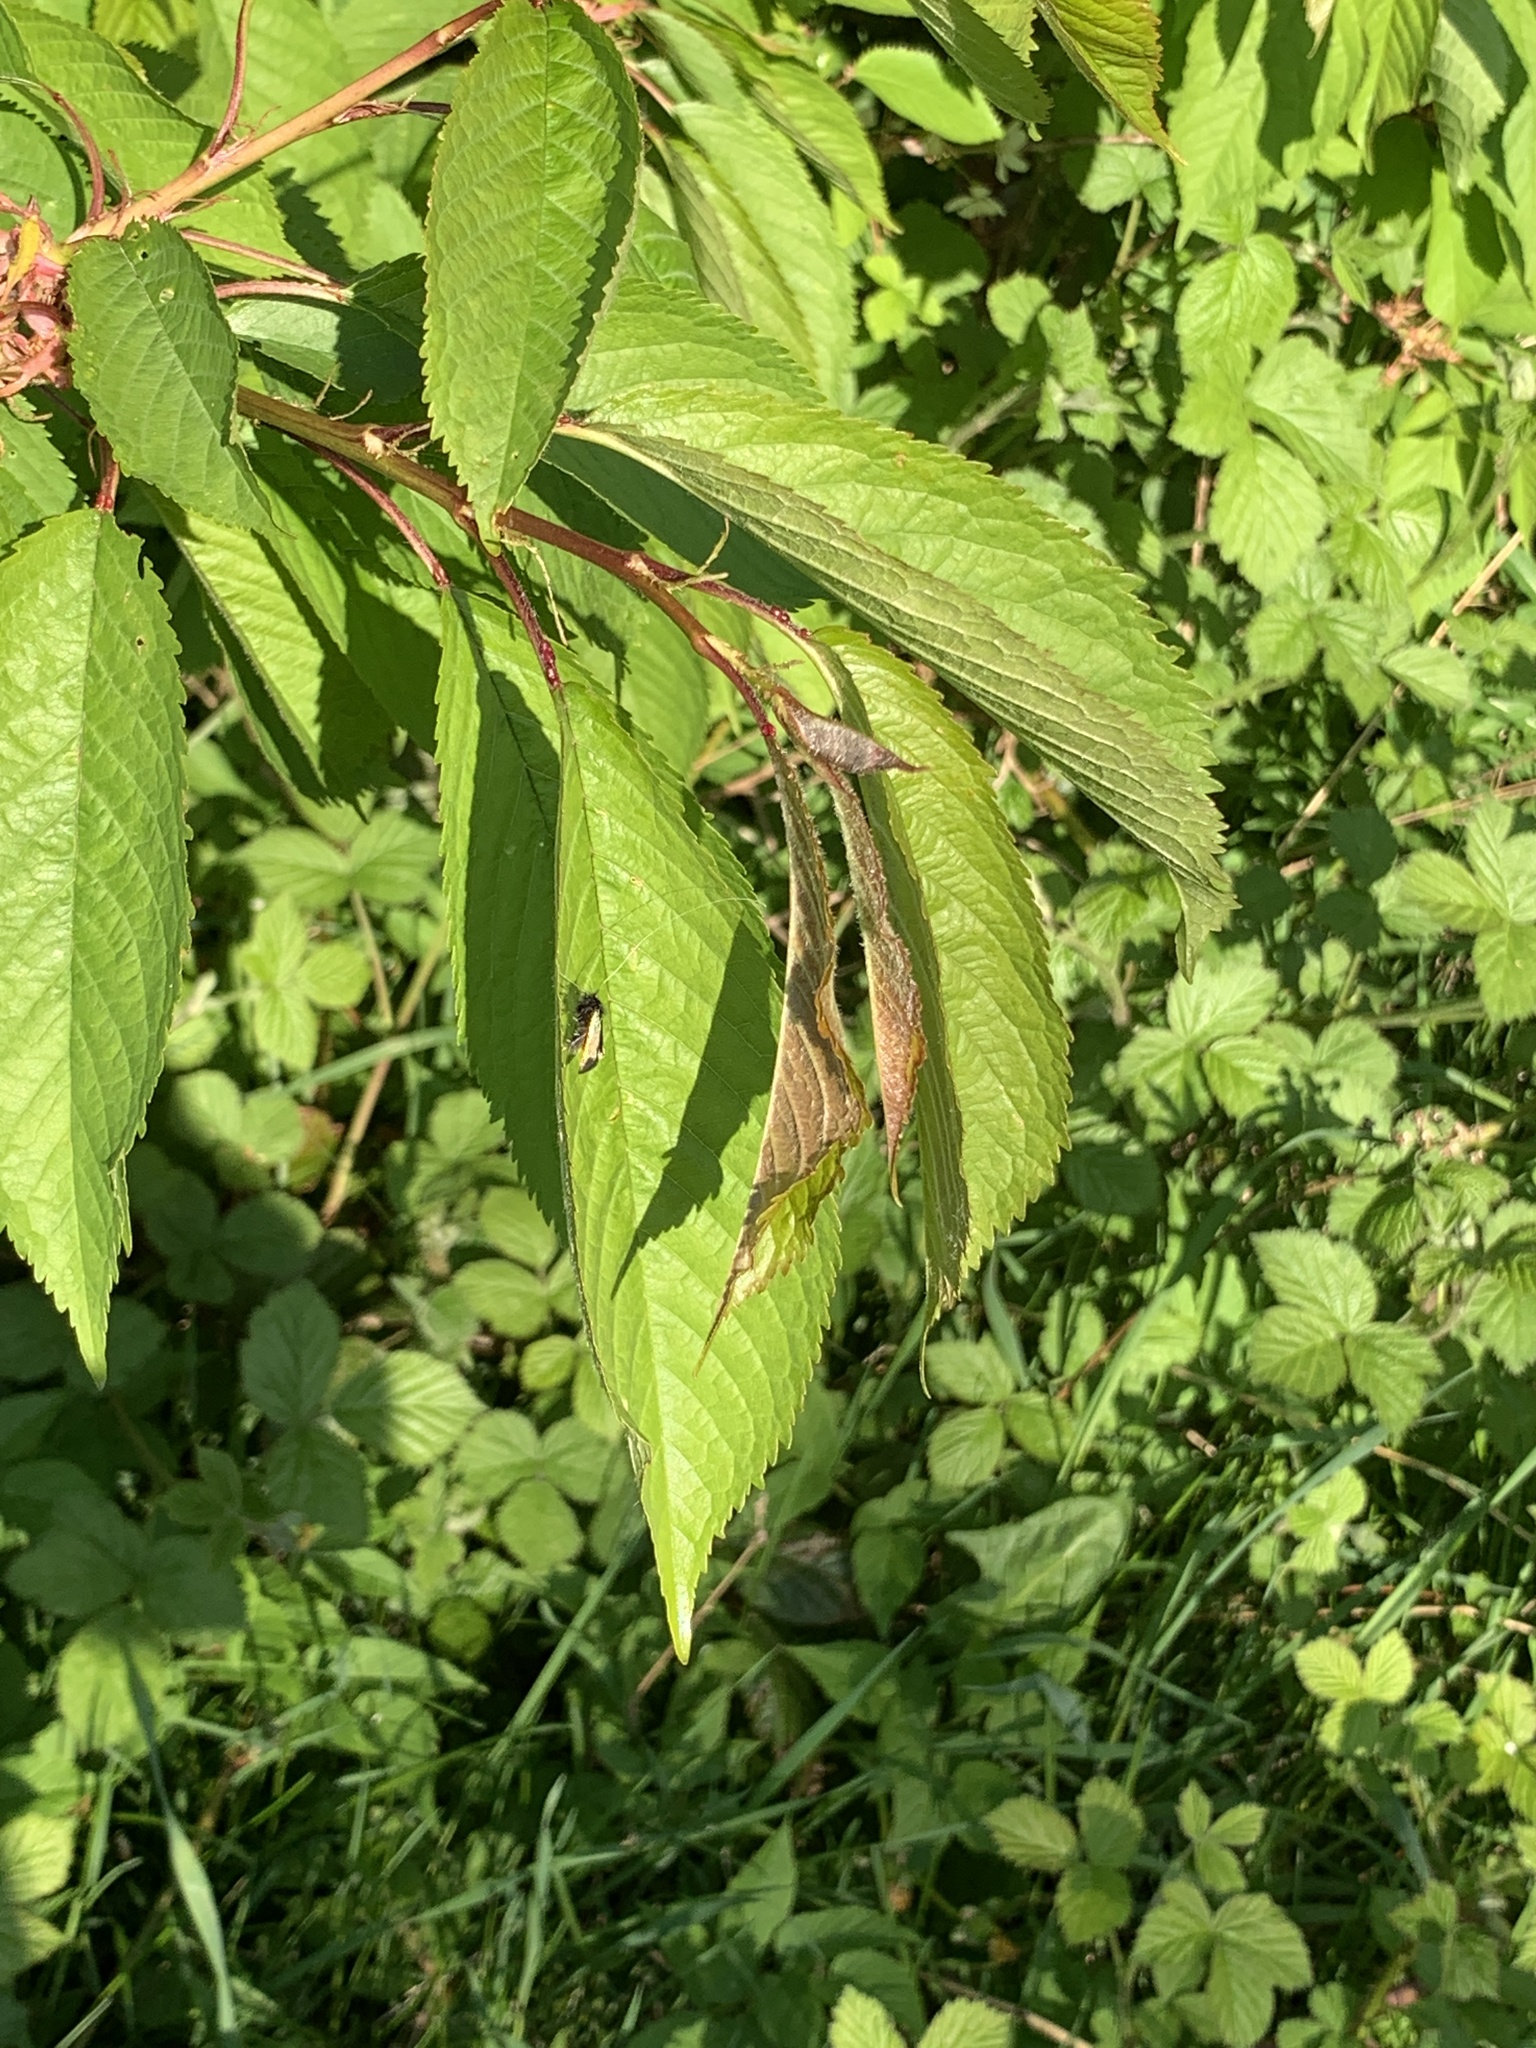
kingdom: Animalia
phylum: Arthropoda
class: Insecta
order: Lepidoptera
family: Adelidae
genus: Adela
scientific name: Adela viridella
